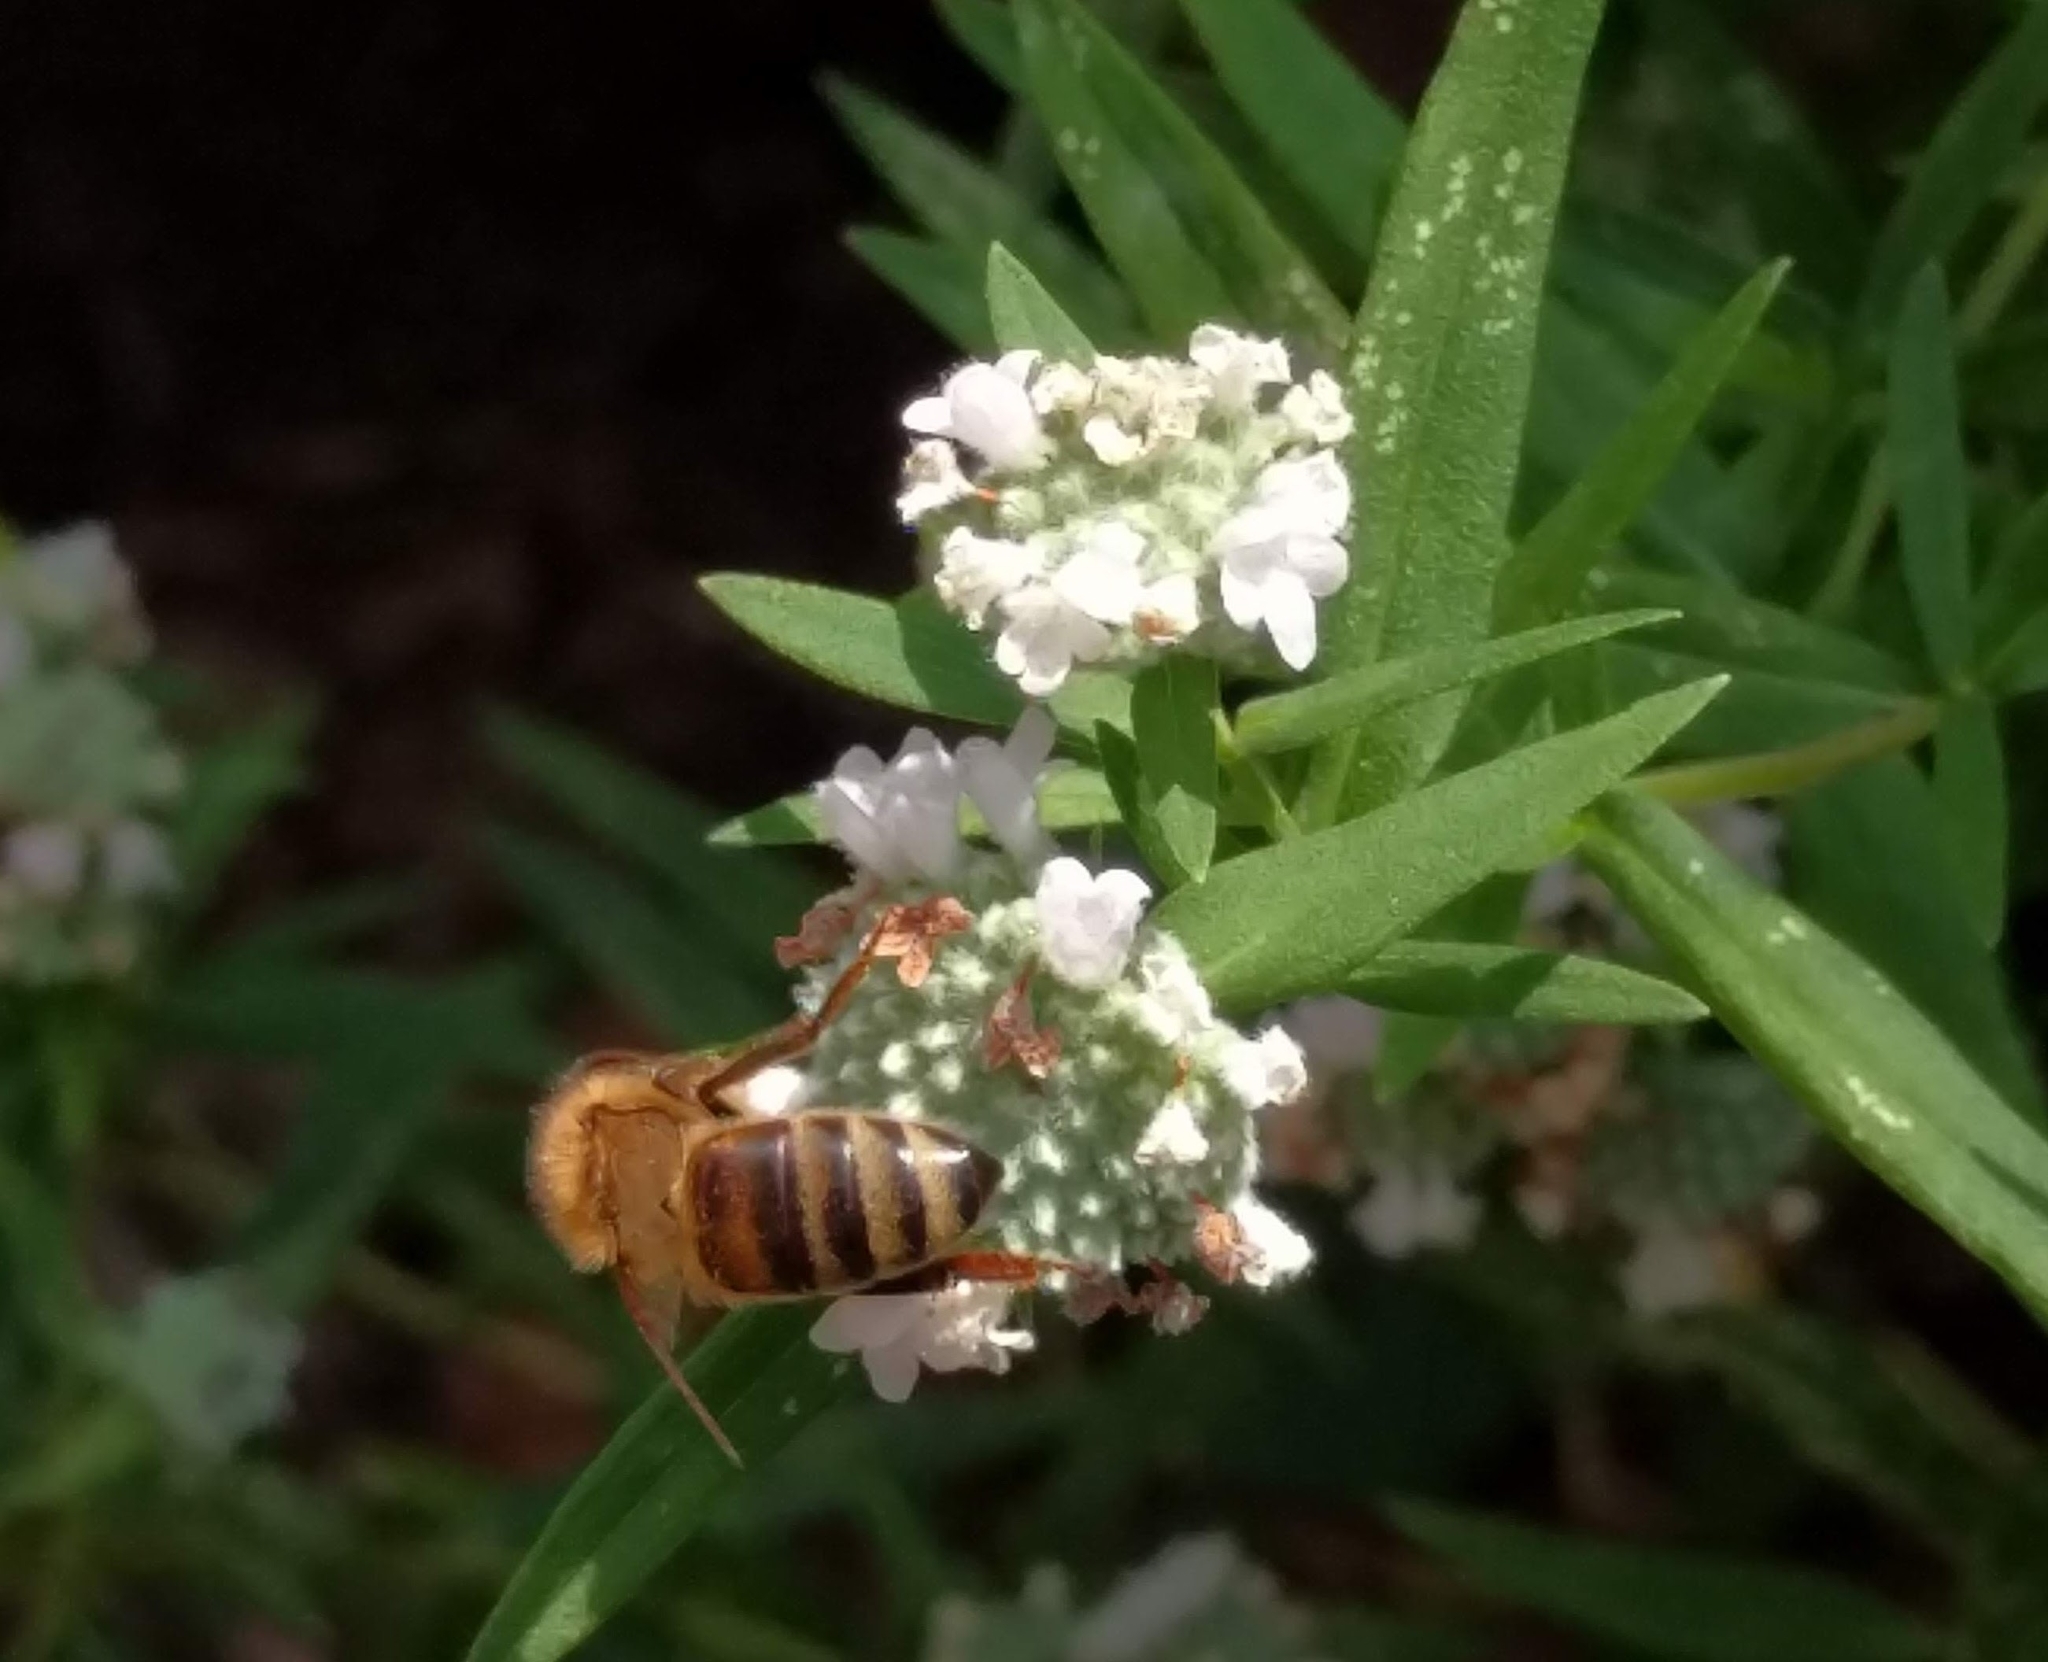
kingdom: Animalia
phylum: Arthropoda
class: Insecta
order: Hymenoptera
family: Apidae
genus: Apis
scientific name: Apis mellifera
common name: Honey bee
